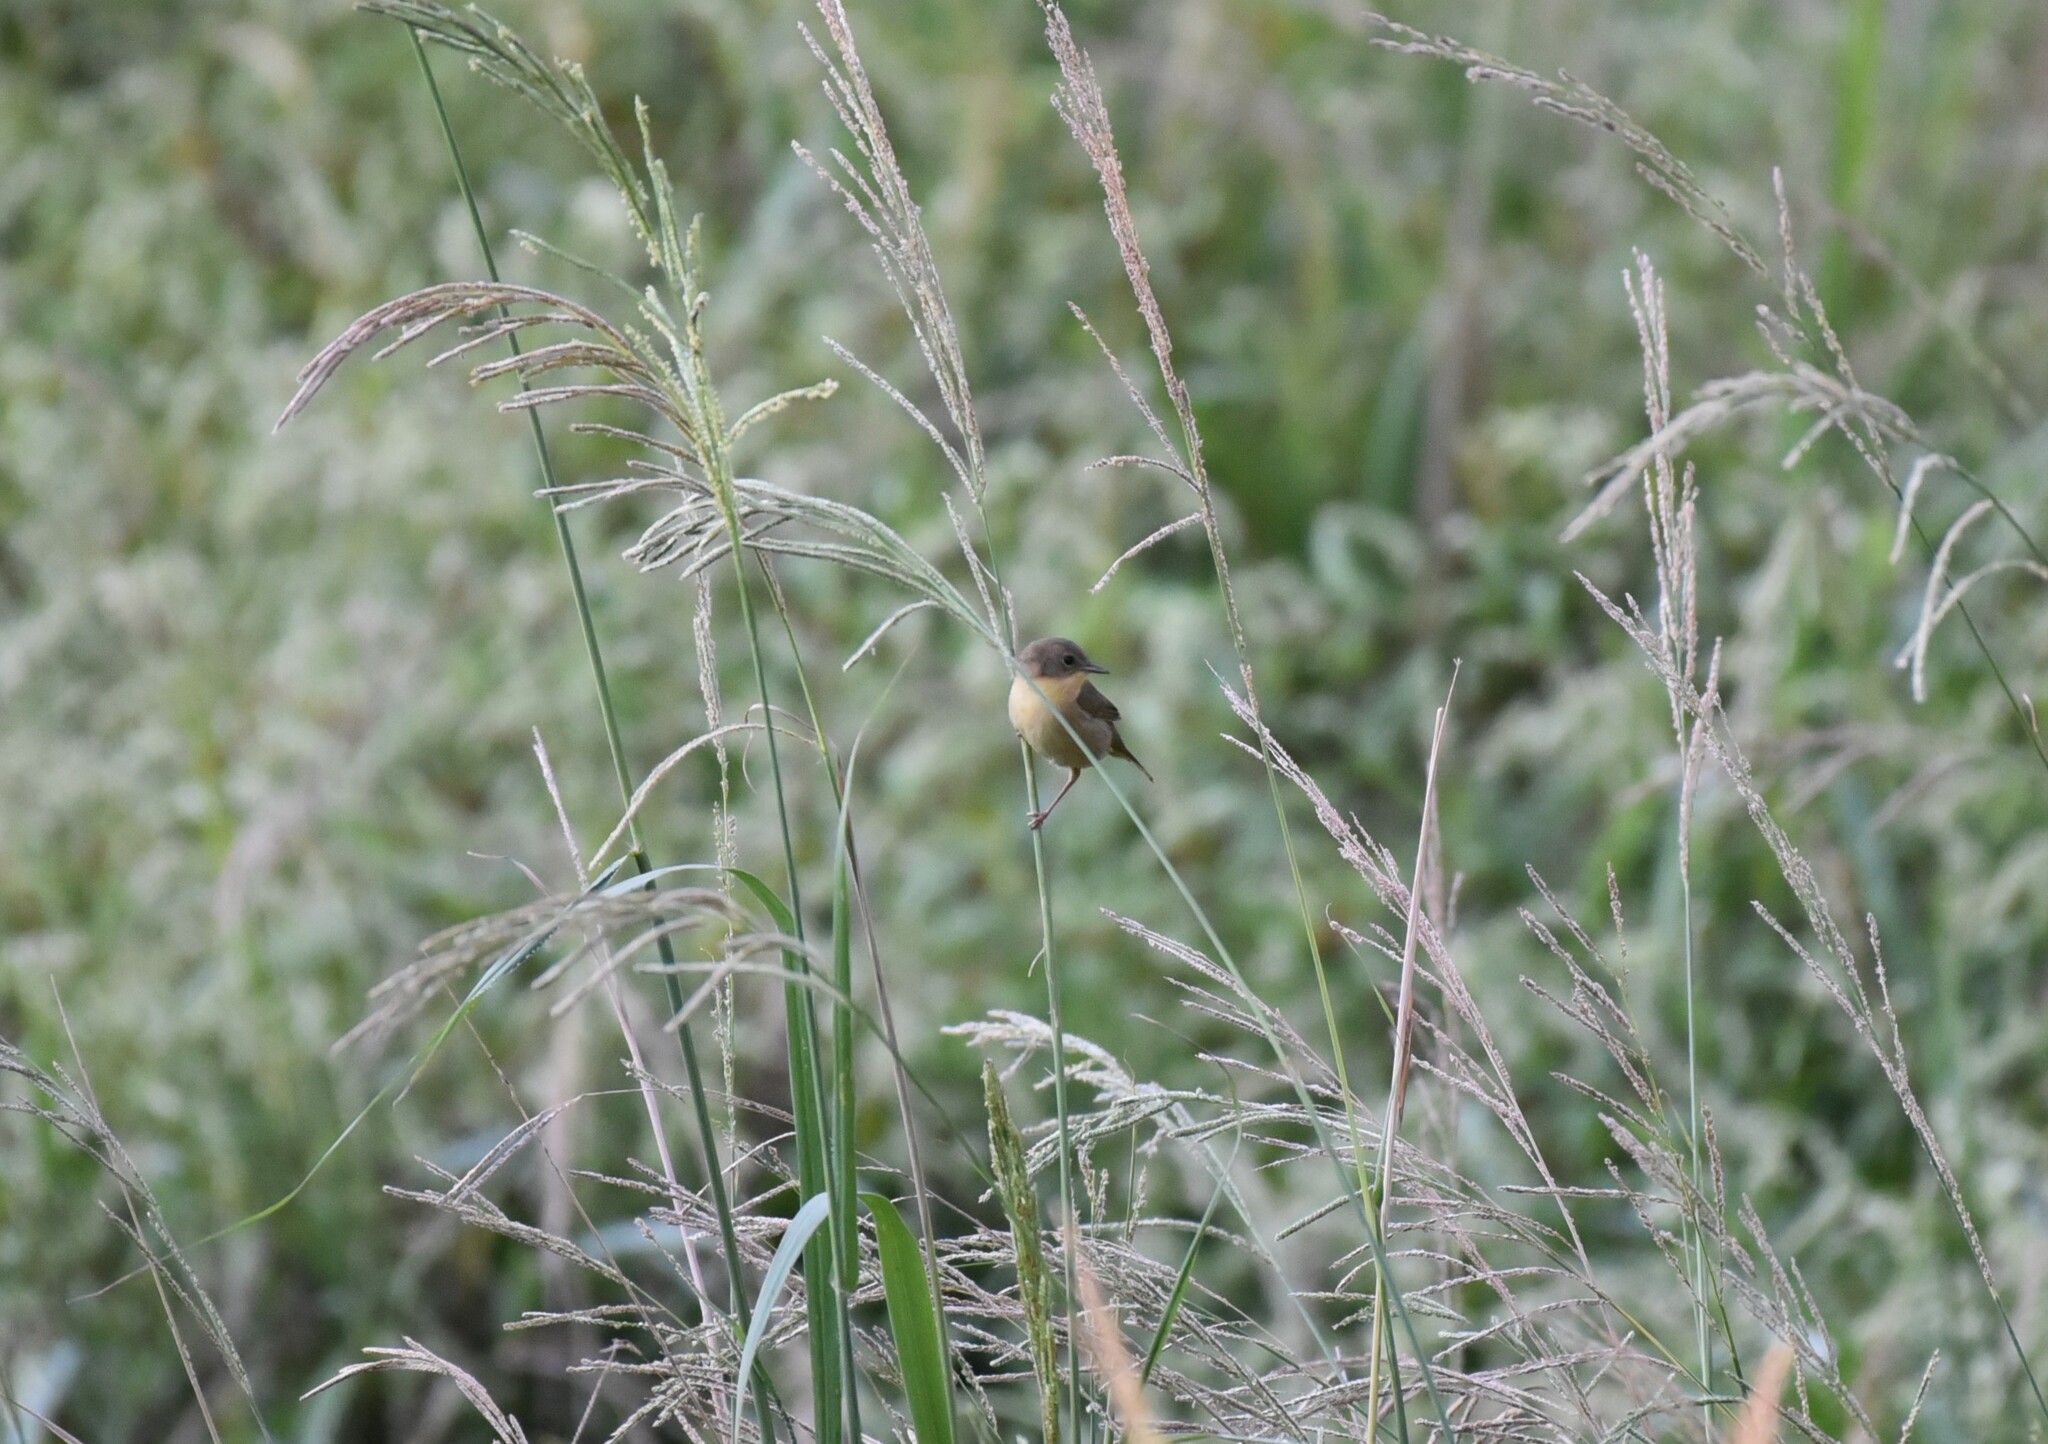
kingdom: Animalia
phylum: Chordata
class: Aves
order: Passeriformes
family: Parulidae
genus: Geothlypis
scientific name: Geothlypis trichas
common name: Common yellowthroat
